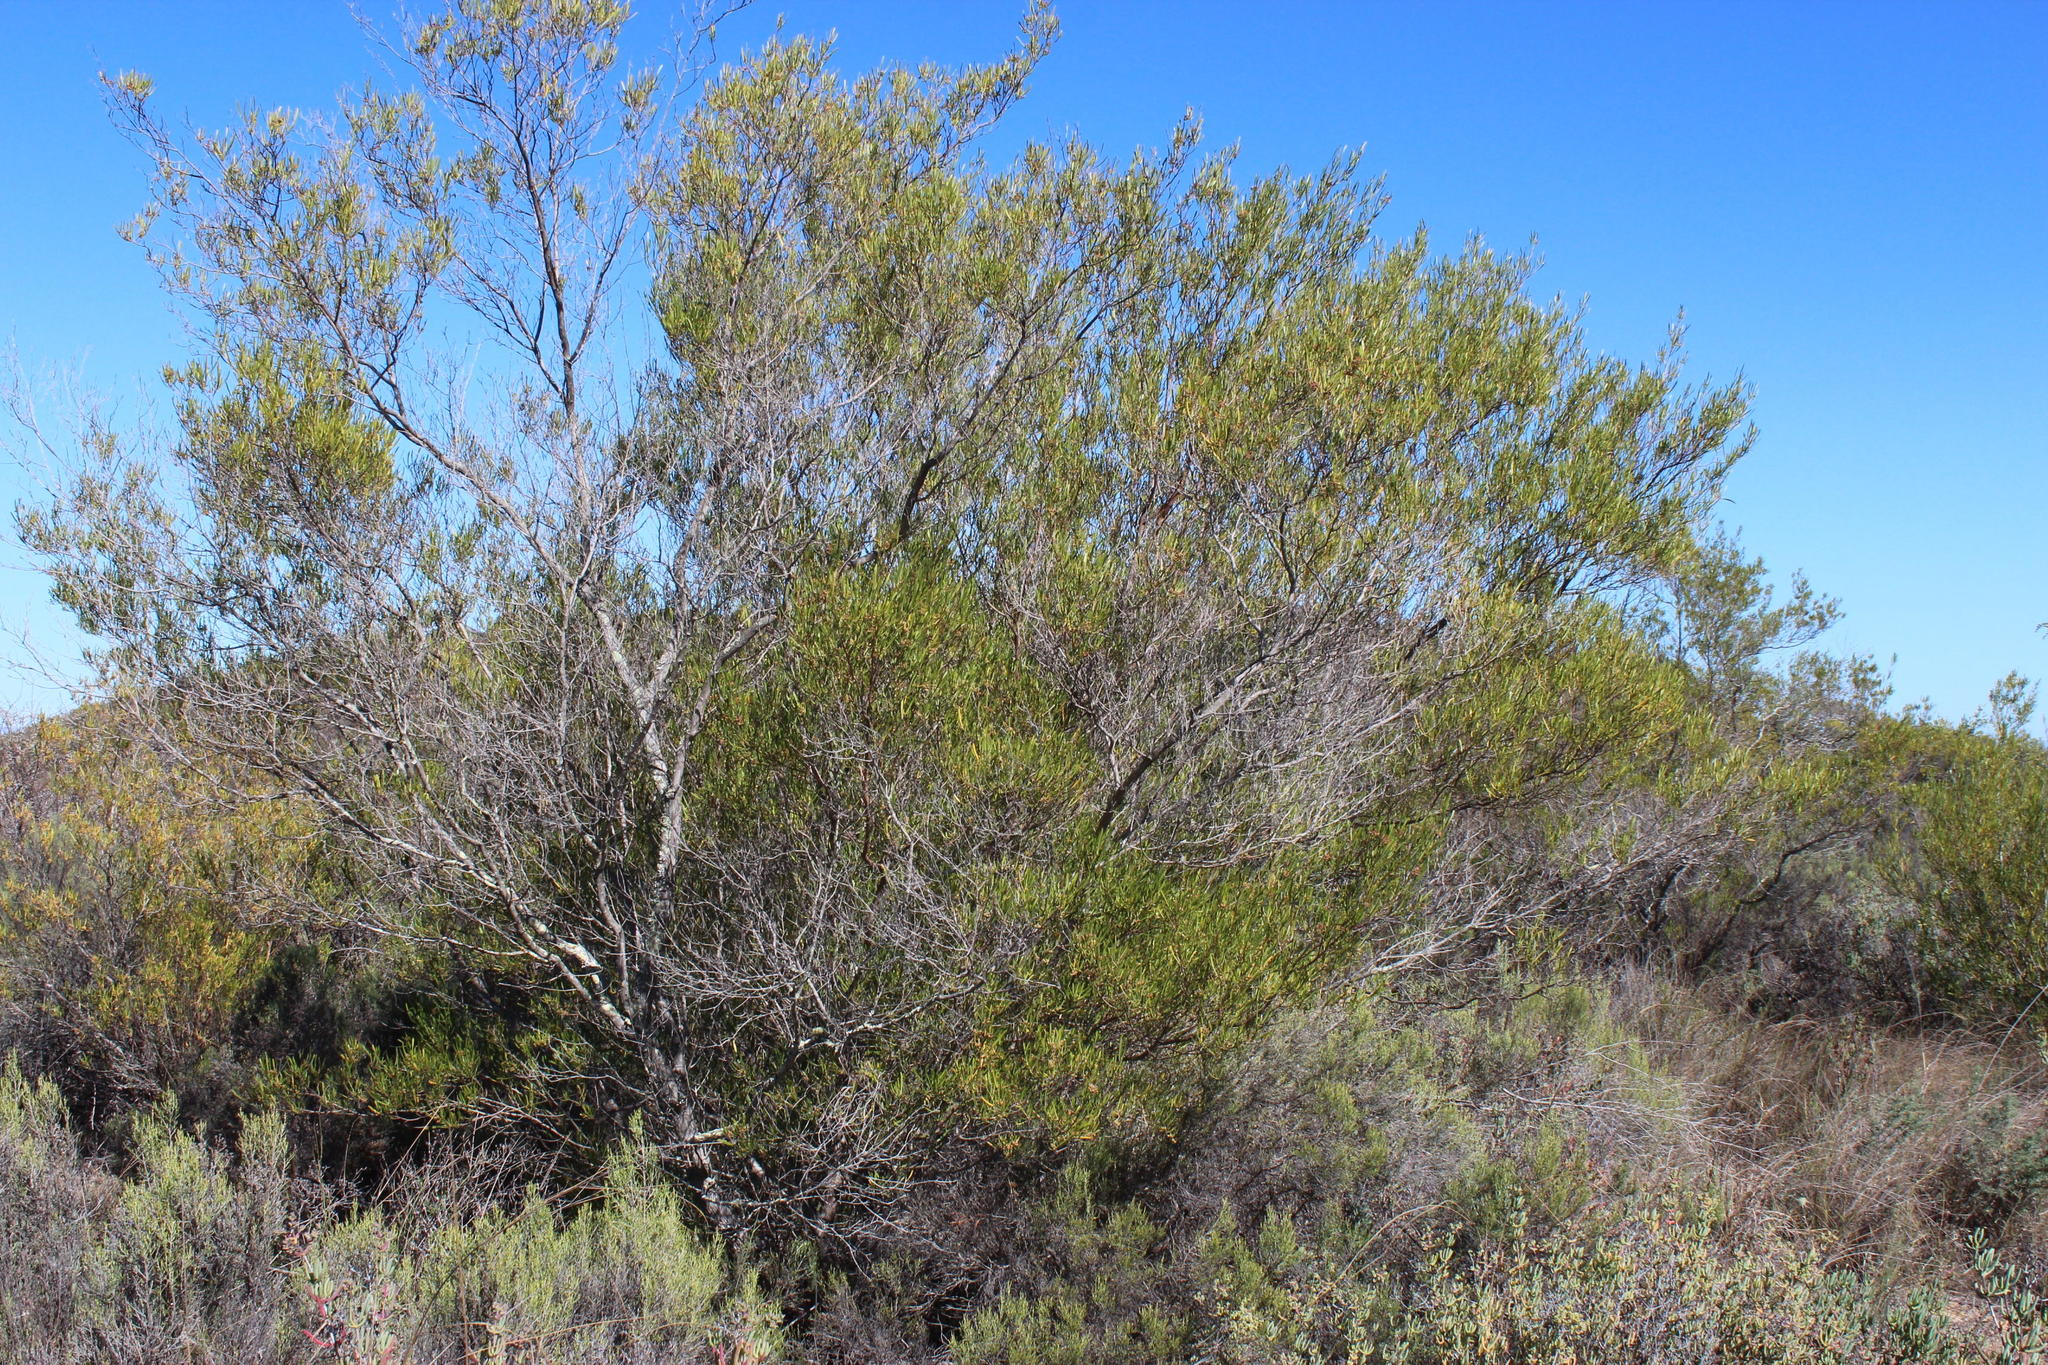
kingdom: Plantae
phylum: Tracheophyta
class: Magnoliopsida
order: Sapindales
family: Sapindaceae
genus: Dodonaea
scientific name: Dodonaea viscosa
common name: Hopbush
